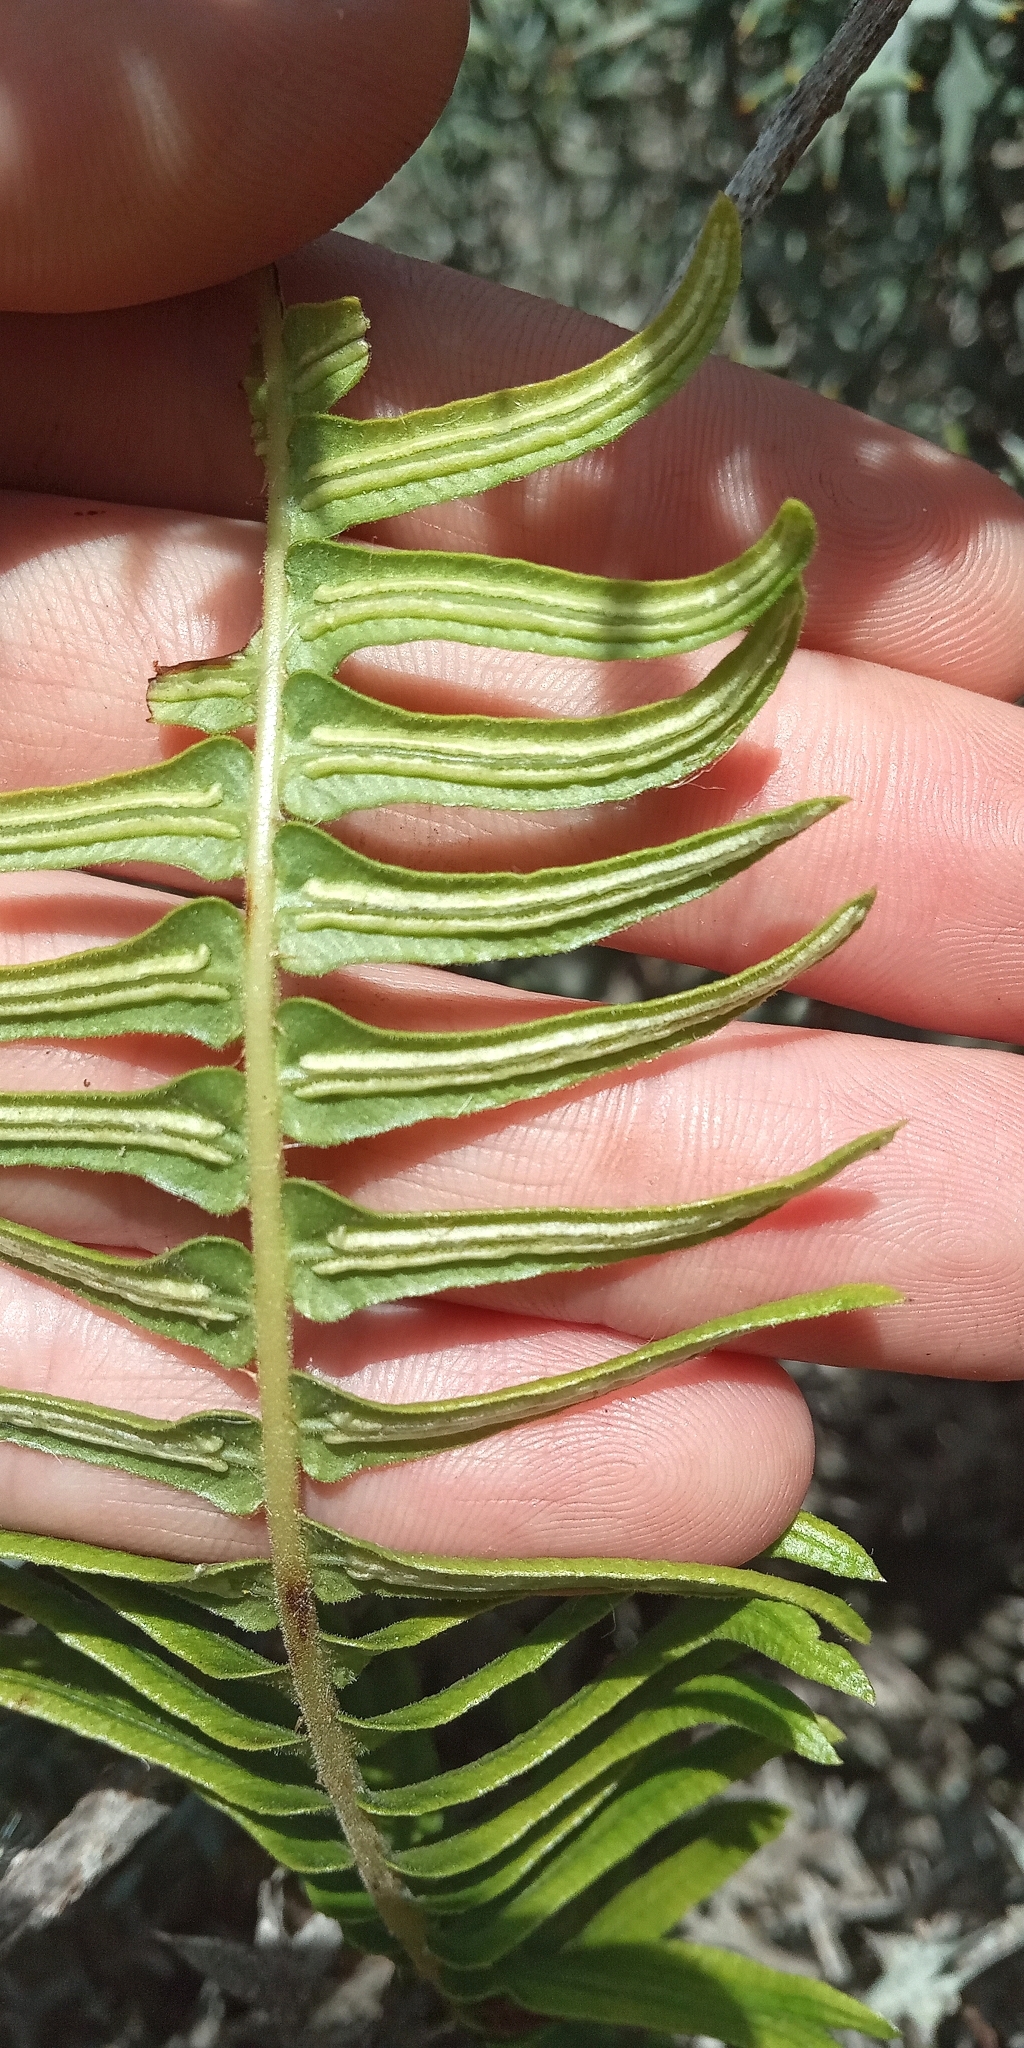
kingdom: Plantae
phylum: Tracheophyta
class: Polypodiopsida
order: Polypodiales
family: Blechnaceae
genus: Blechnum
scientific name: Blechnum australe
